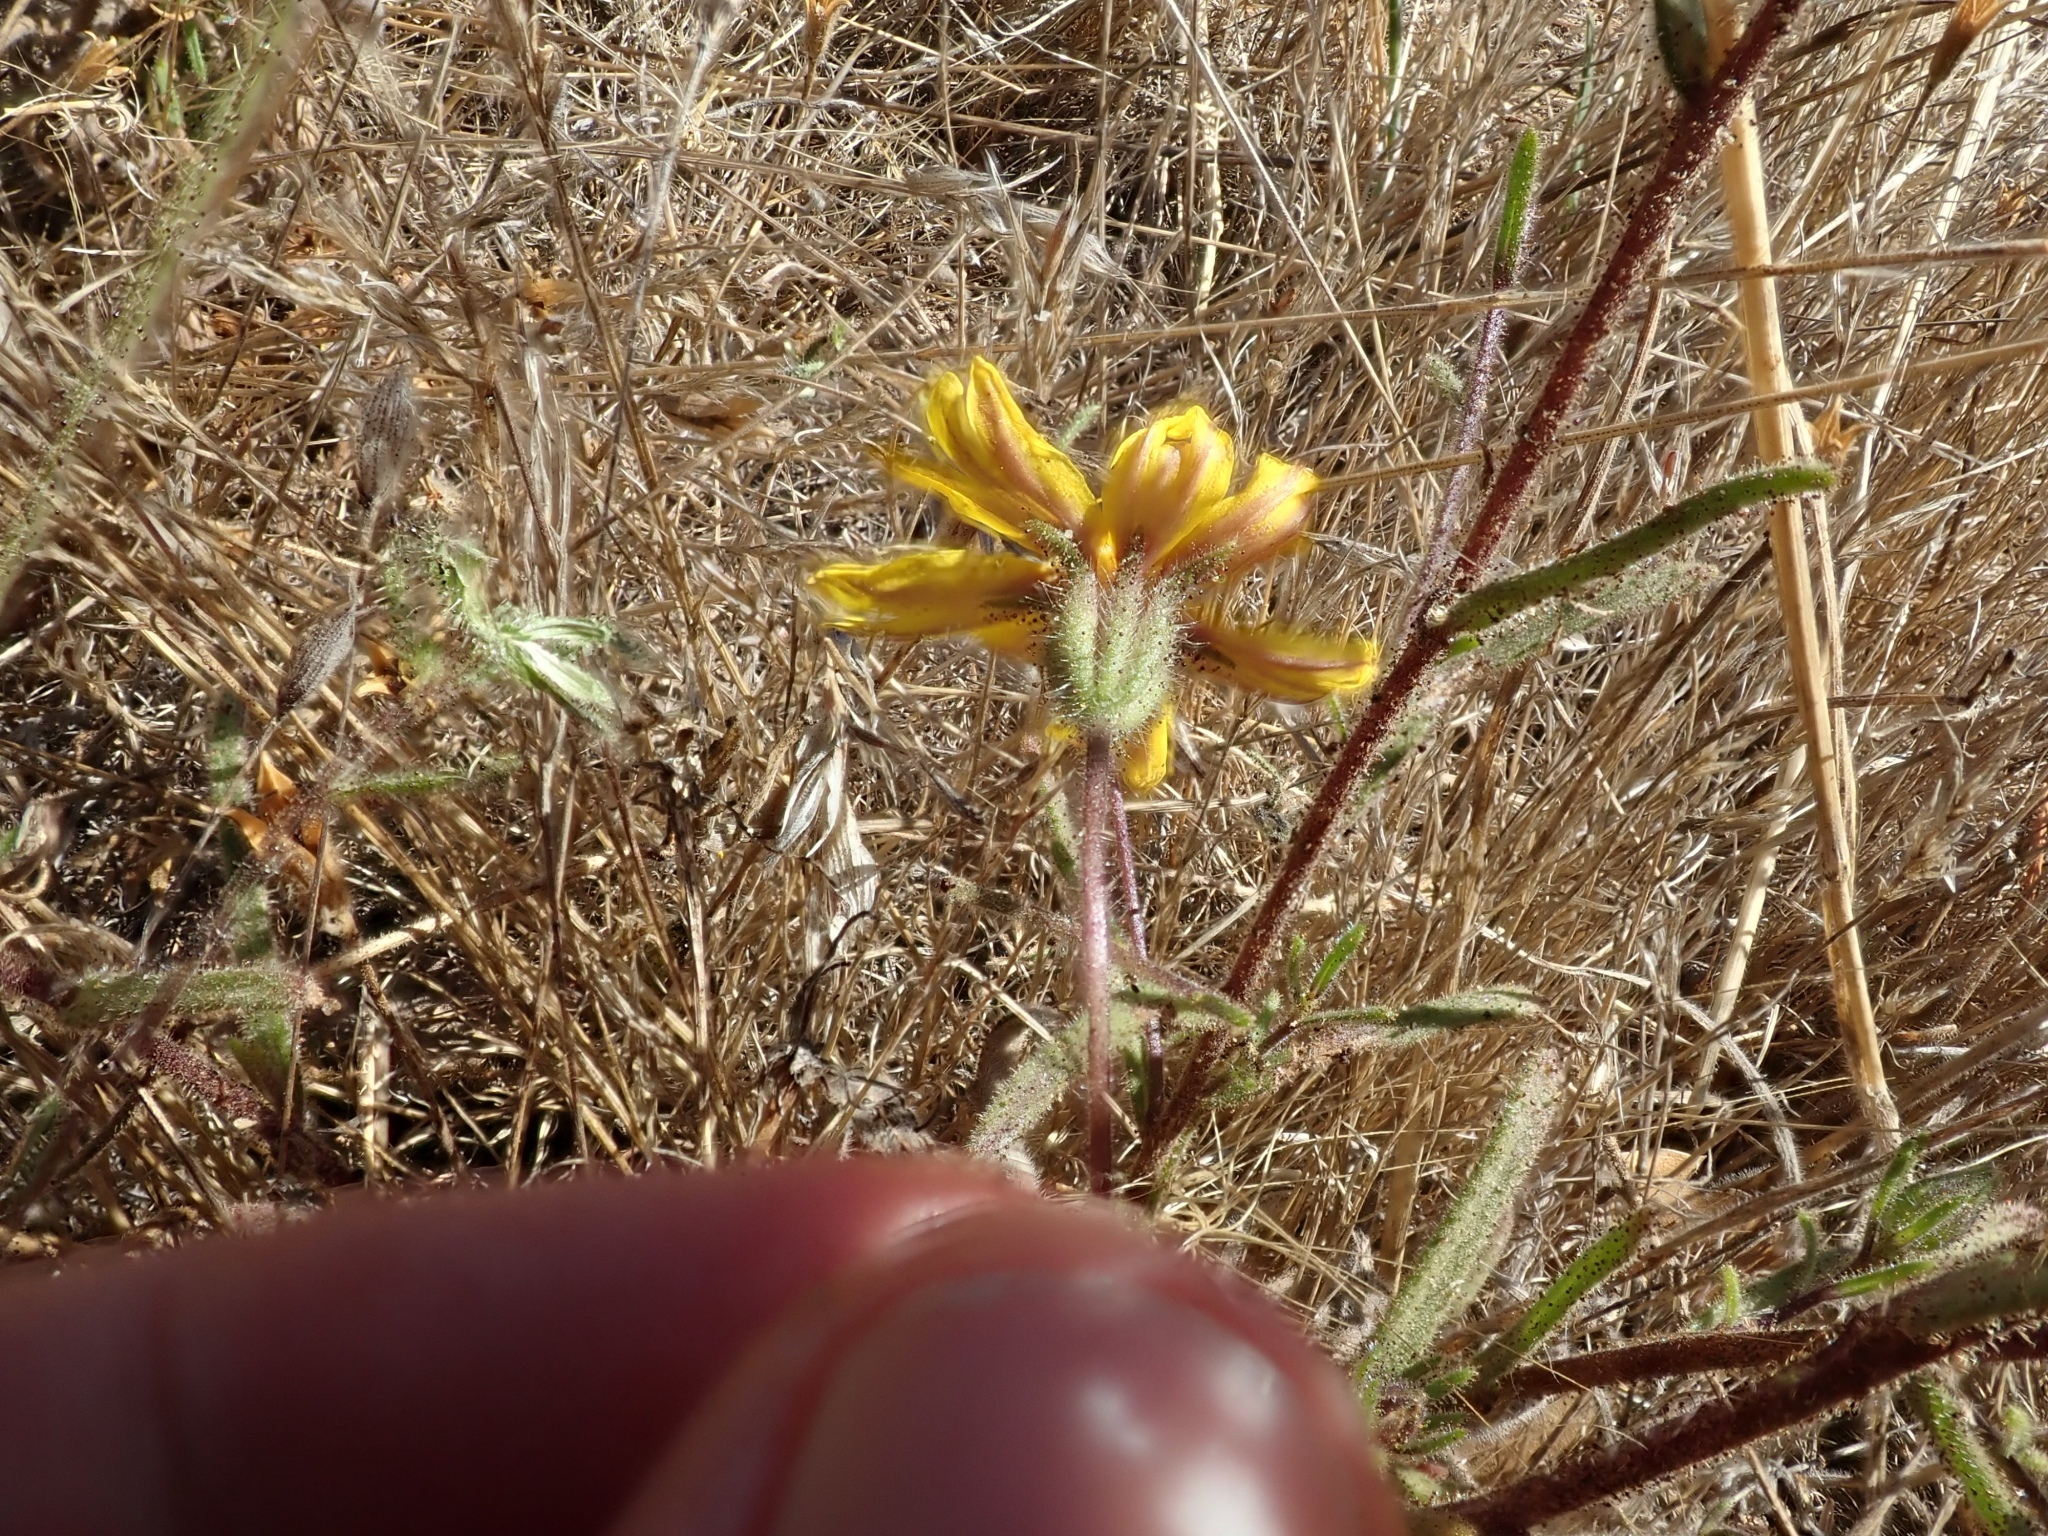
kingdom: Plantae
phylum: Tracheophyta
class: Magnoliopsida
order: Asterales
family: Asteraceae
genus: Madia
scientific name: Madia elegans
